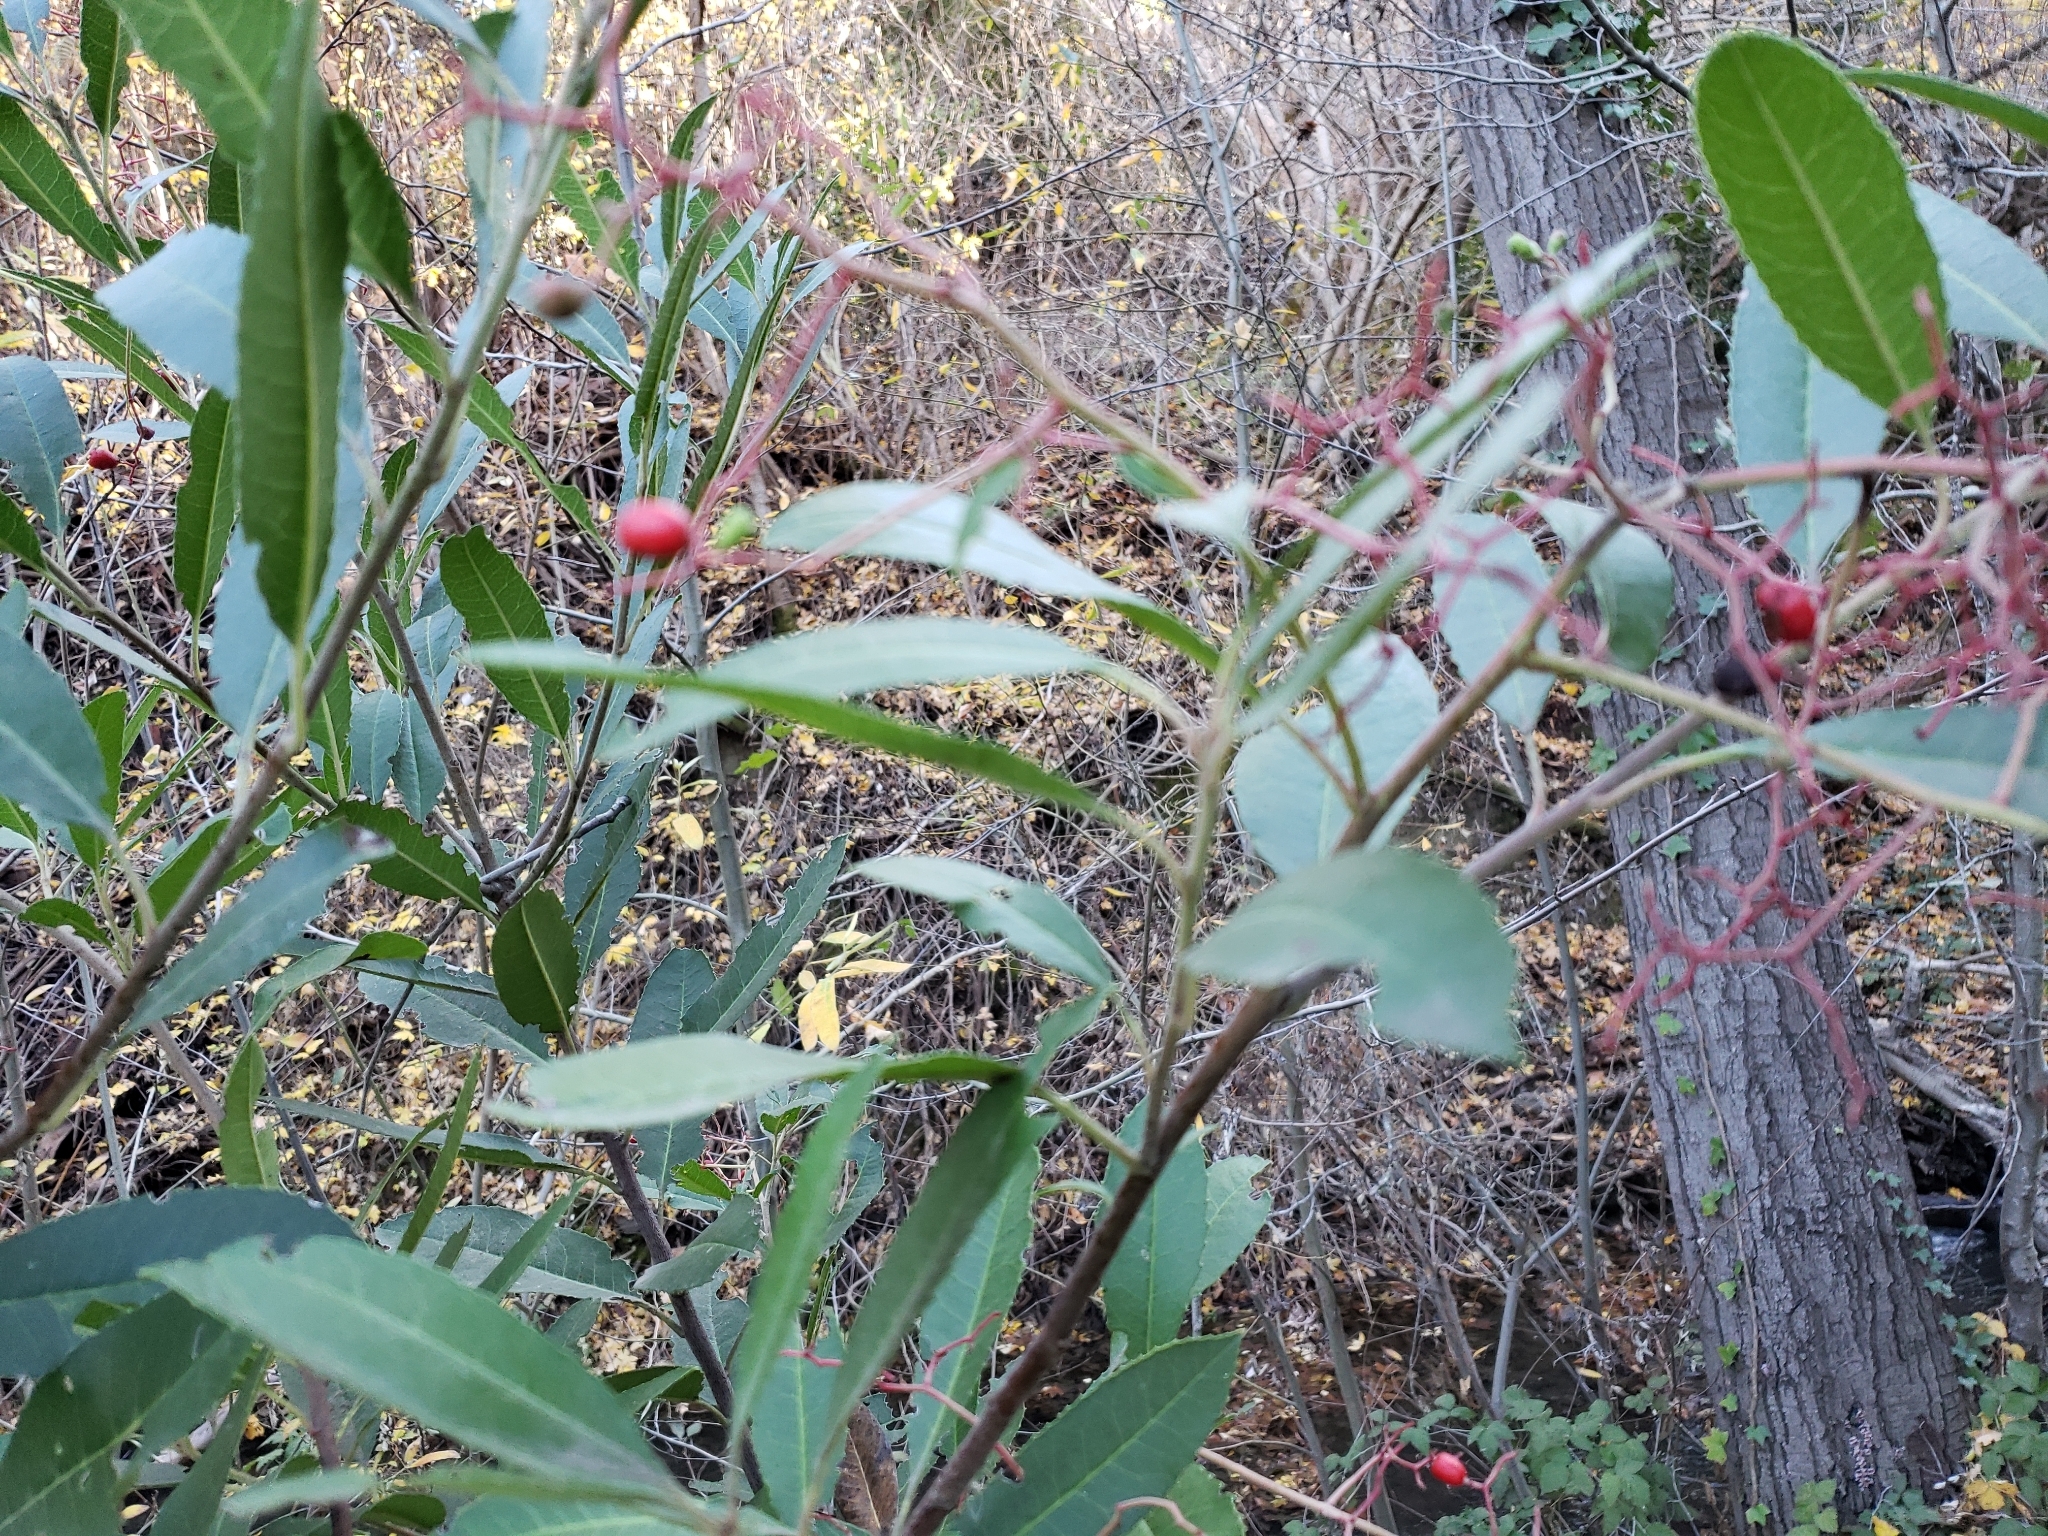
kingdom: Plantae
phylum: Tracheophyta
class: Magnoliopsida
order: Rosales
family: Rosaceae
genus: Heteromeles
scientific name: Heteromeles arbutifolia
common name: California-holly
